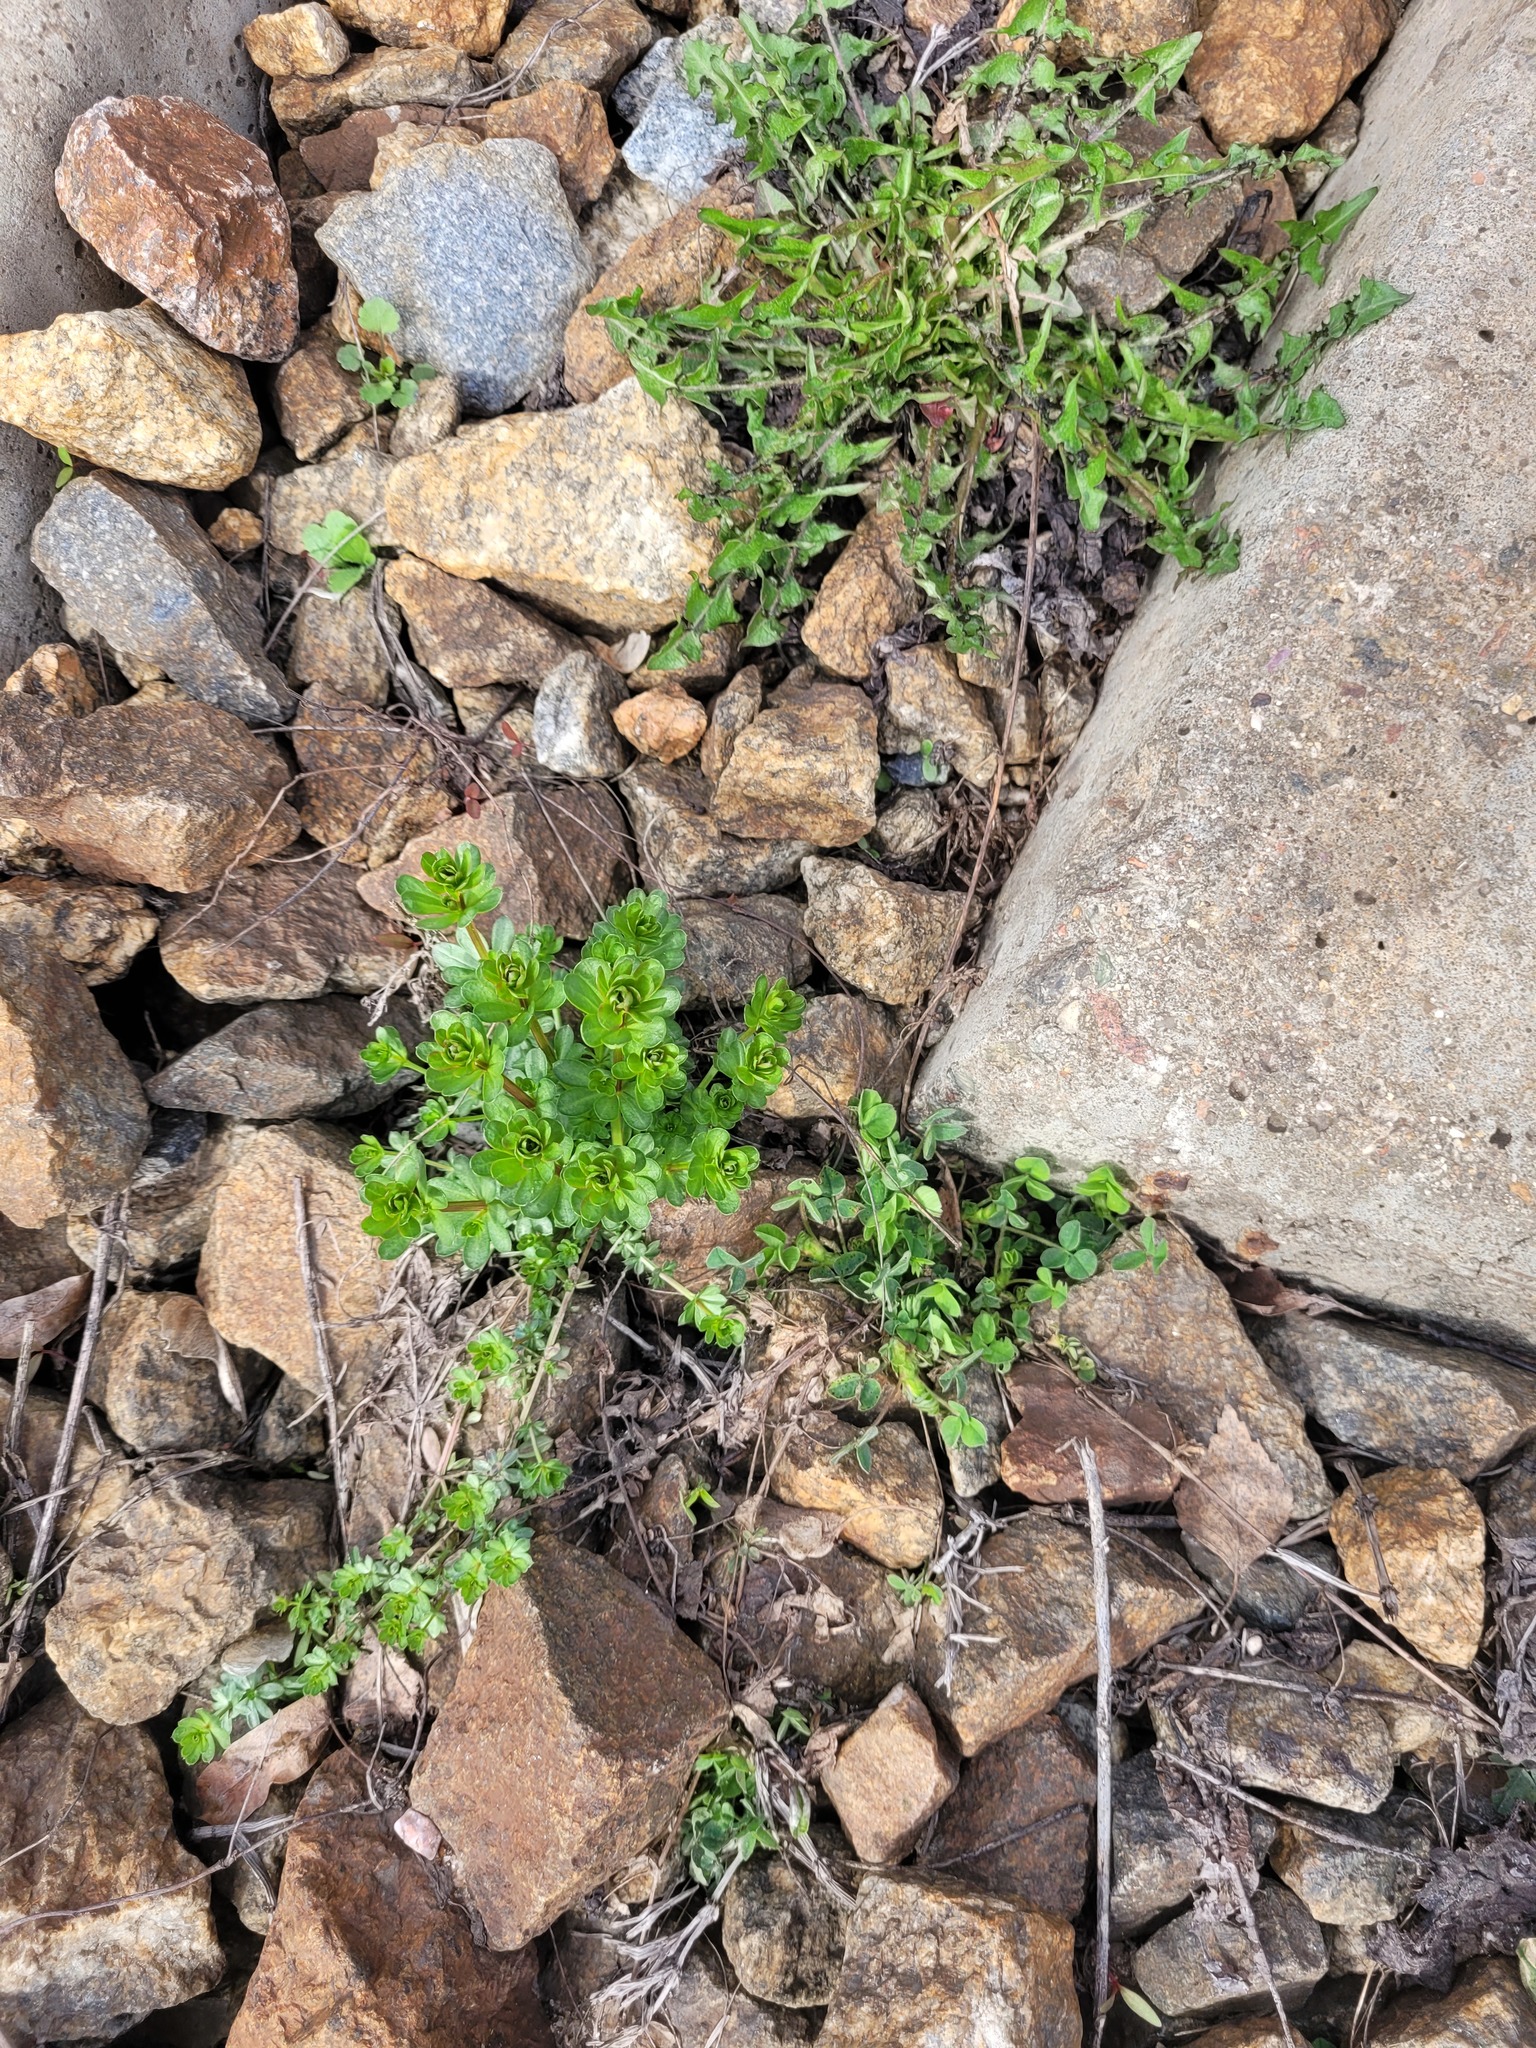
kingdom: Plantae
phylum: Tracheophyta
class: Magnoliopsida
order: Gentianales
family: Rubiaceae
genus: Galium
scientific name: Galium mollugo
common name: Hedge bedstraw
